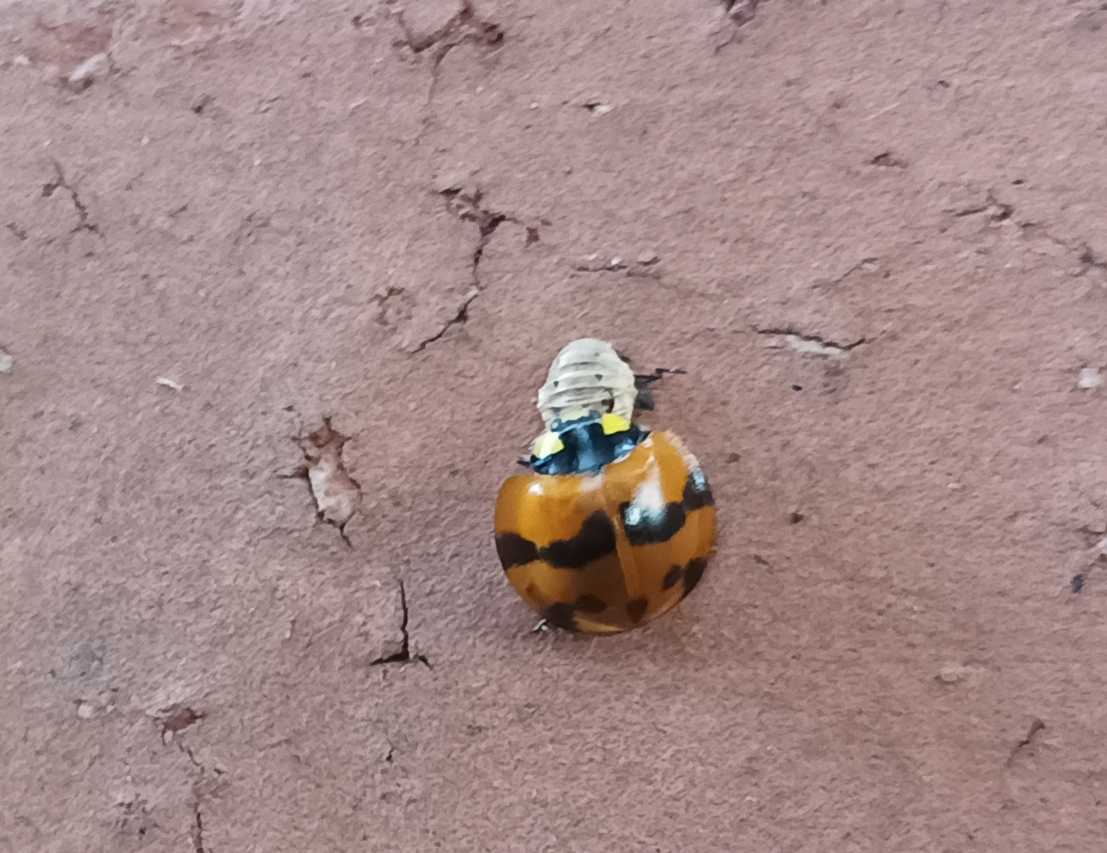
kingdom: Animalia
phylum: Arthropoda
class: Insecta
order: Coleoptera
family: Coccinellidae
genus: Neda
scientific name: Neda norrisi
